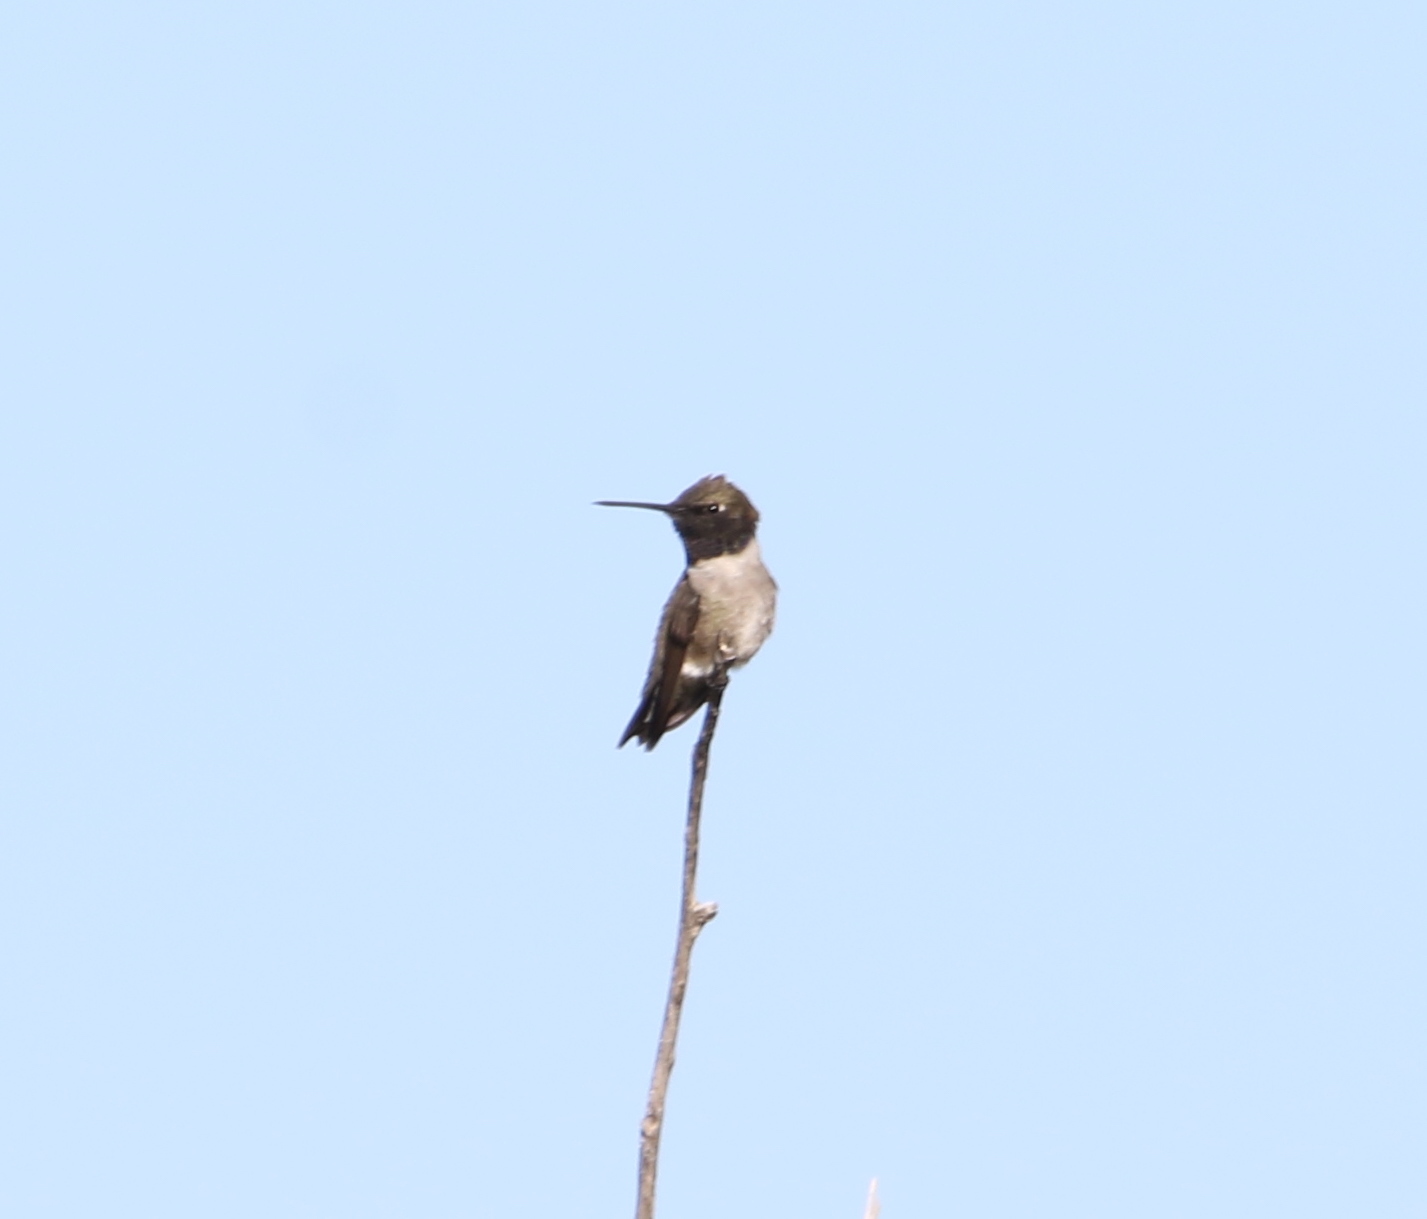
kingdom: Animalia
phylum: Chordata
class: Aves
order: Apodiformes
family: Trochilidae
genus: Archilochus
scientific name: Archilochus alexandri
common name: Black-chinned hummingbird
